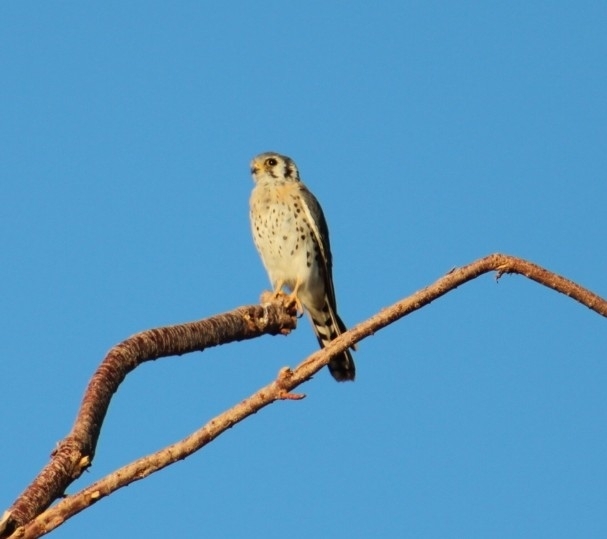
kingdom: Animalia
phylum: Chordata
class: Aves
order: Falconiformes
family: Falconidae
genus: Falco
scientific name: Falco sparverius
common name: American kestrel
